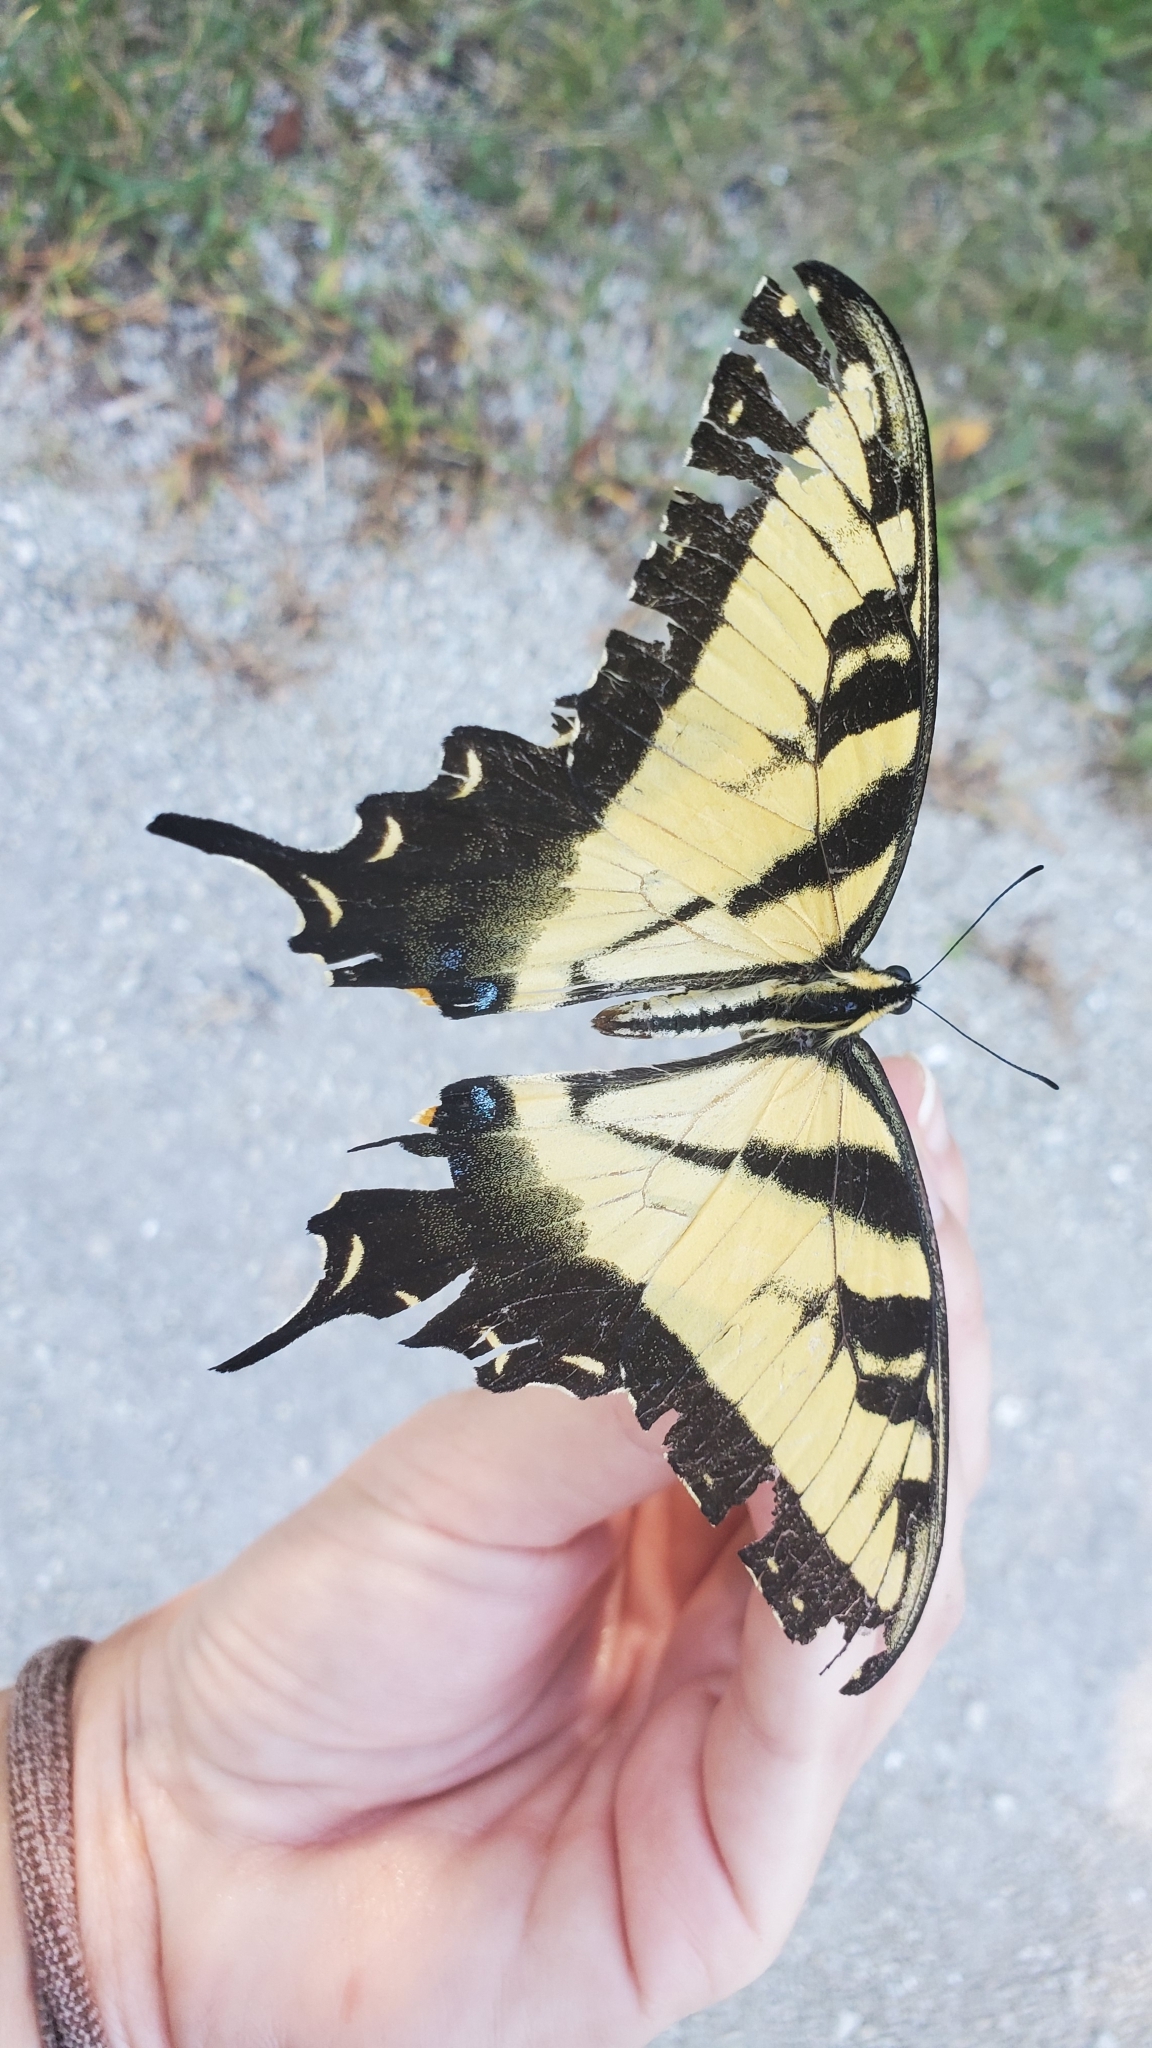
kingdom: Animalia
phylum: Arthropoda
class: Insecta
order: Lepidoptera
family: Papilionidae
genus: Papilio
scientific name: Papilio glaucus
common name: Tiger swallowtail
